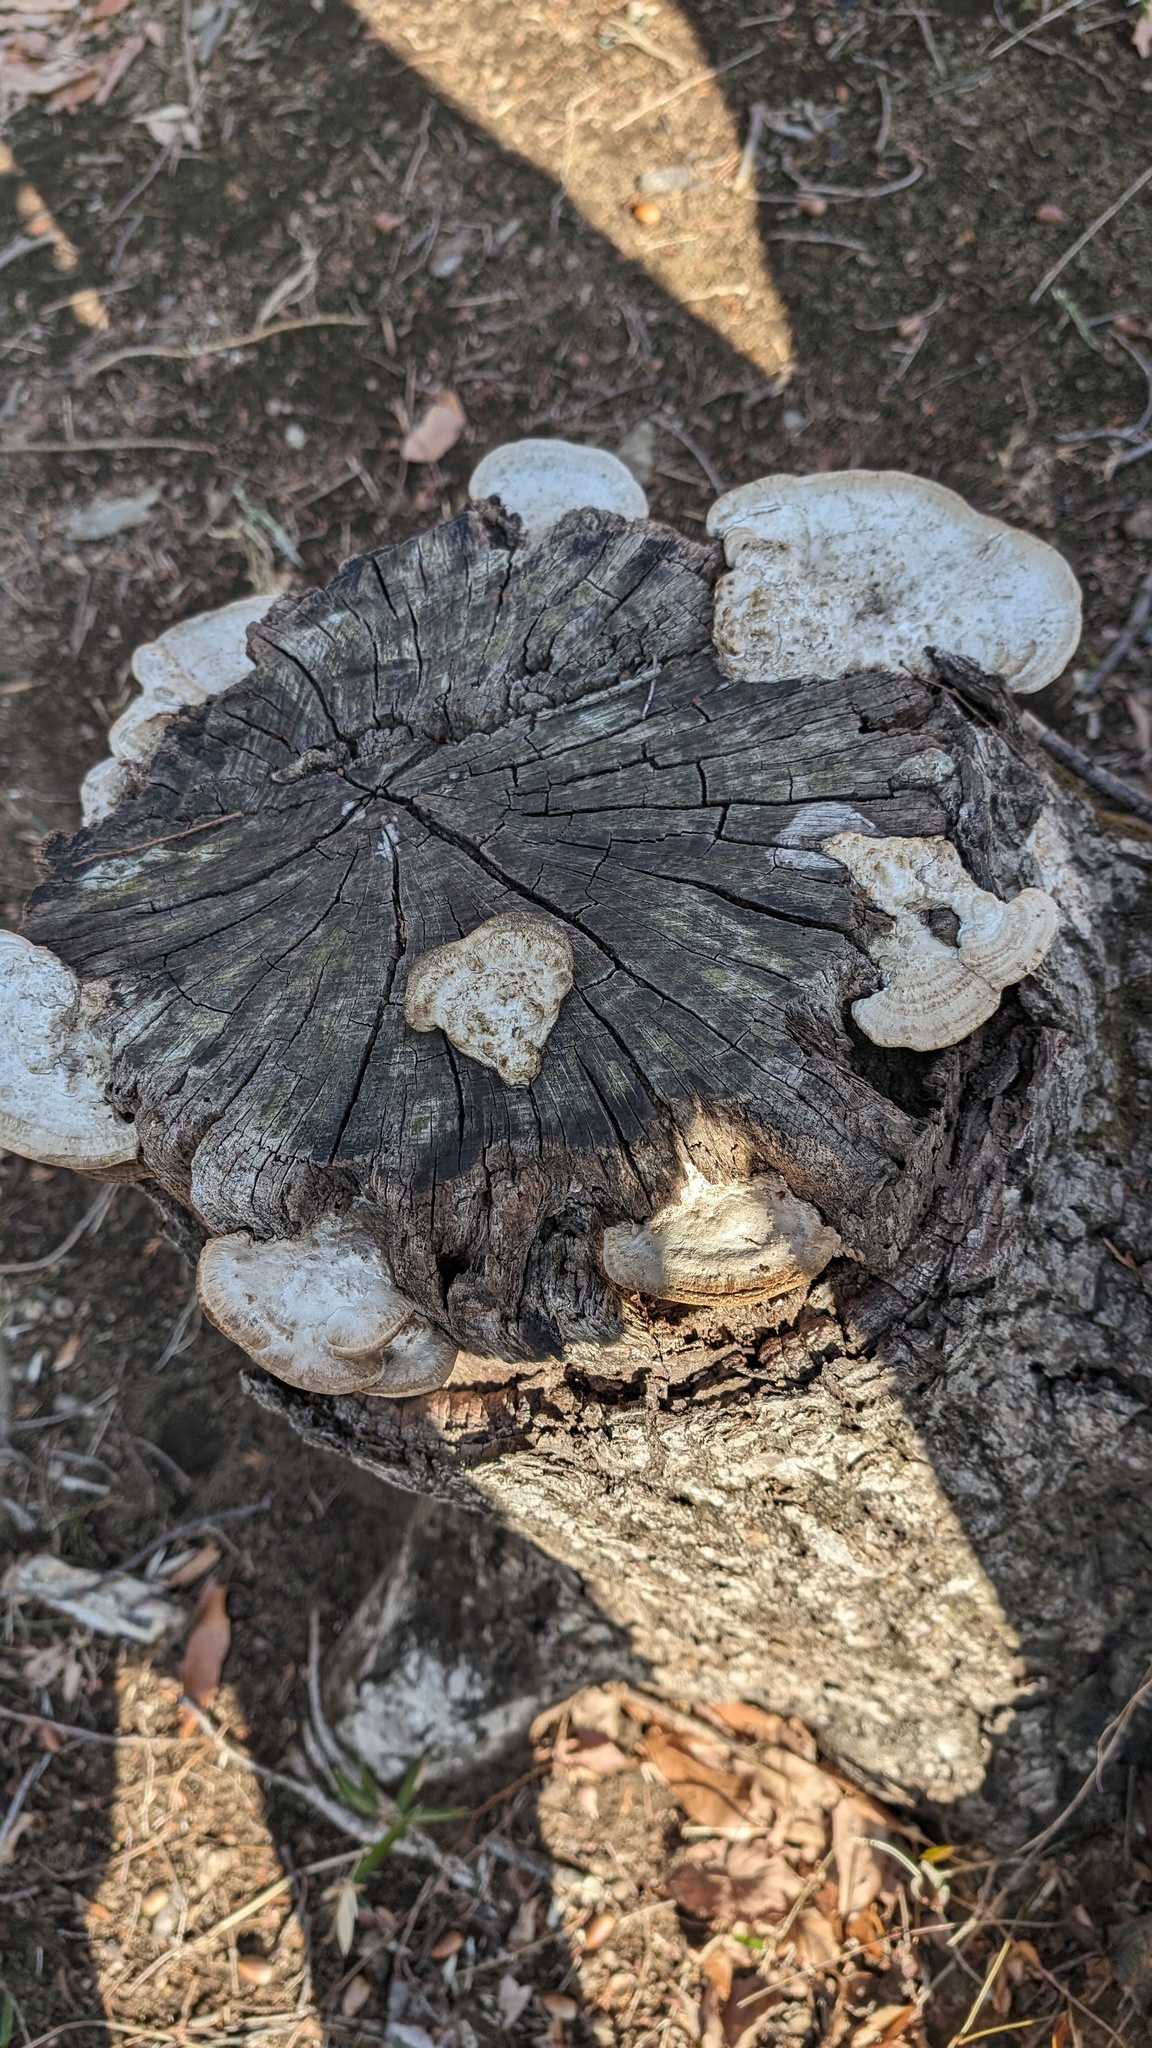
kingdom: Fungi
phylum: Basidiomycota
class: Agaricomycetes
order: Polyporales
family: Fomitopsidaceae
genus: Fomitopsis
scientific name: Fomitopsis
